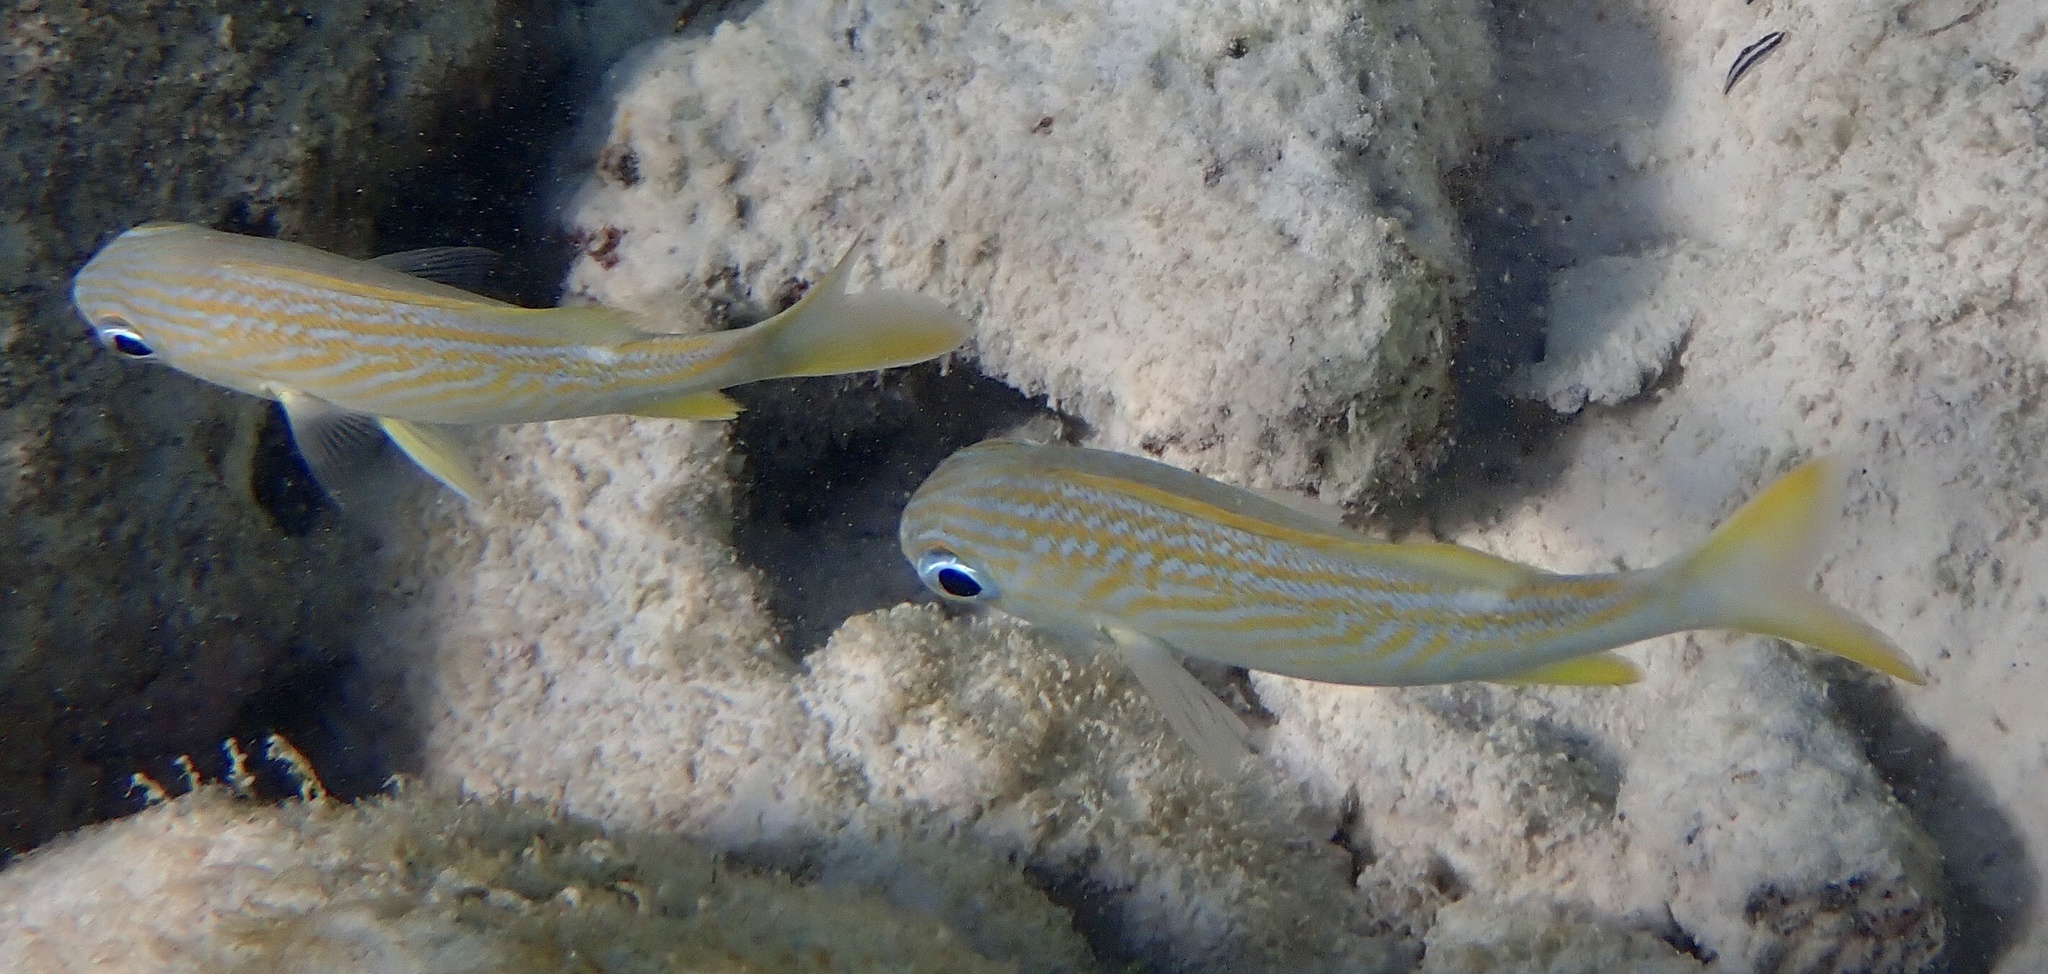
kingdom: Animalia
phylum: Chordata
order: Perciformes
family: Haemulidae
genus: Haemulon
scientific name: Haemulon flavolineatum
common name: French grunt
